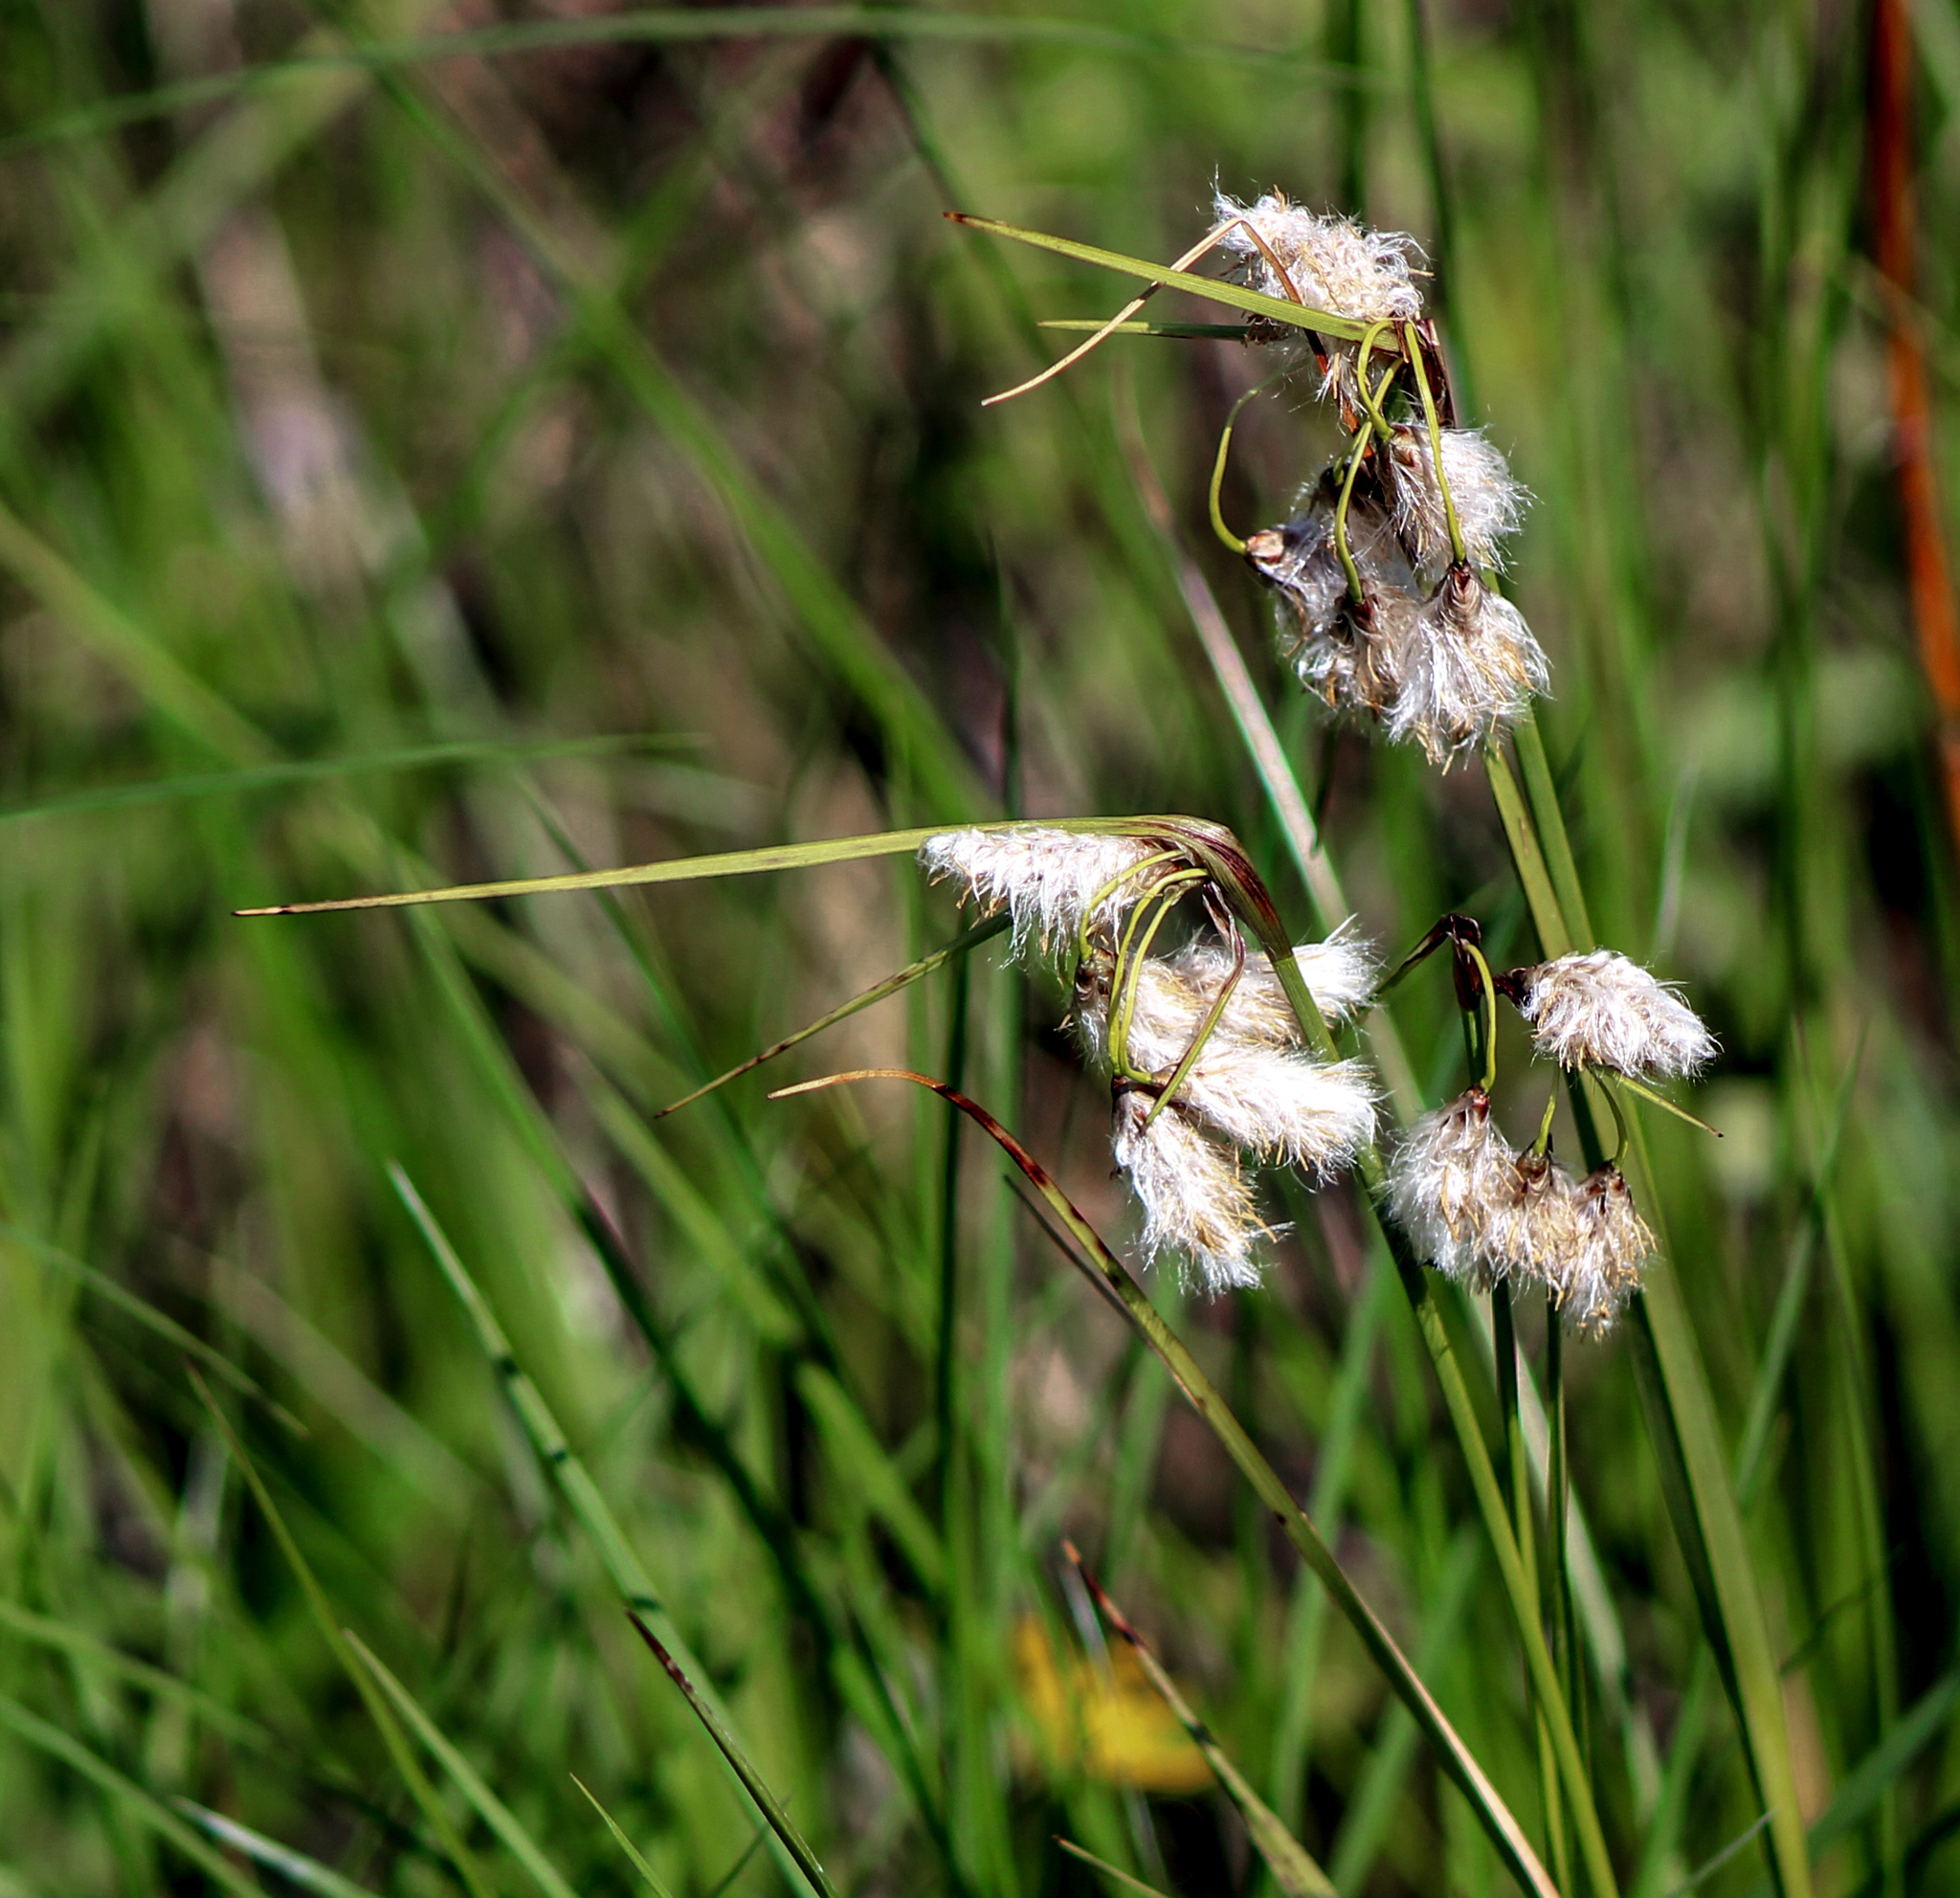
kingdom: Plantae
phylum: Tracheophyta
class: Liliopsida
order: Poales
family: Cyperaceae
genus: Eriophorum
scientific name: Eriophorum angustifolium
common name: Common cottongrass
